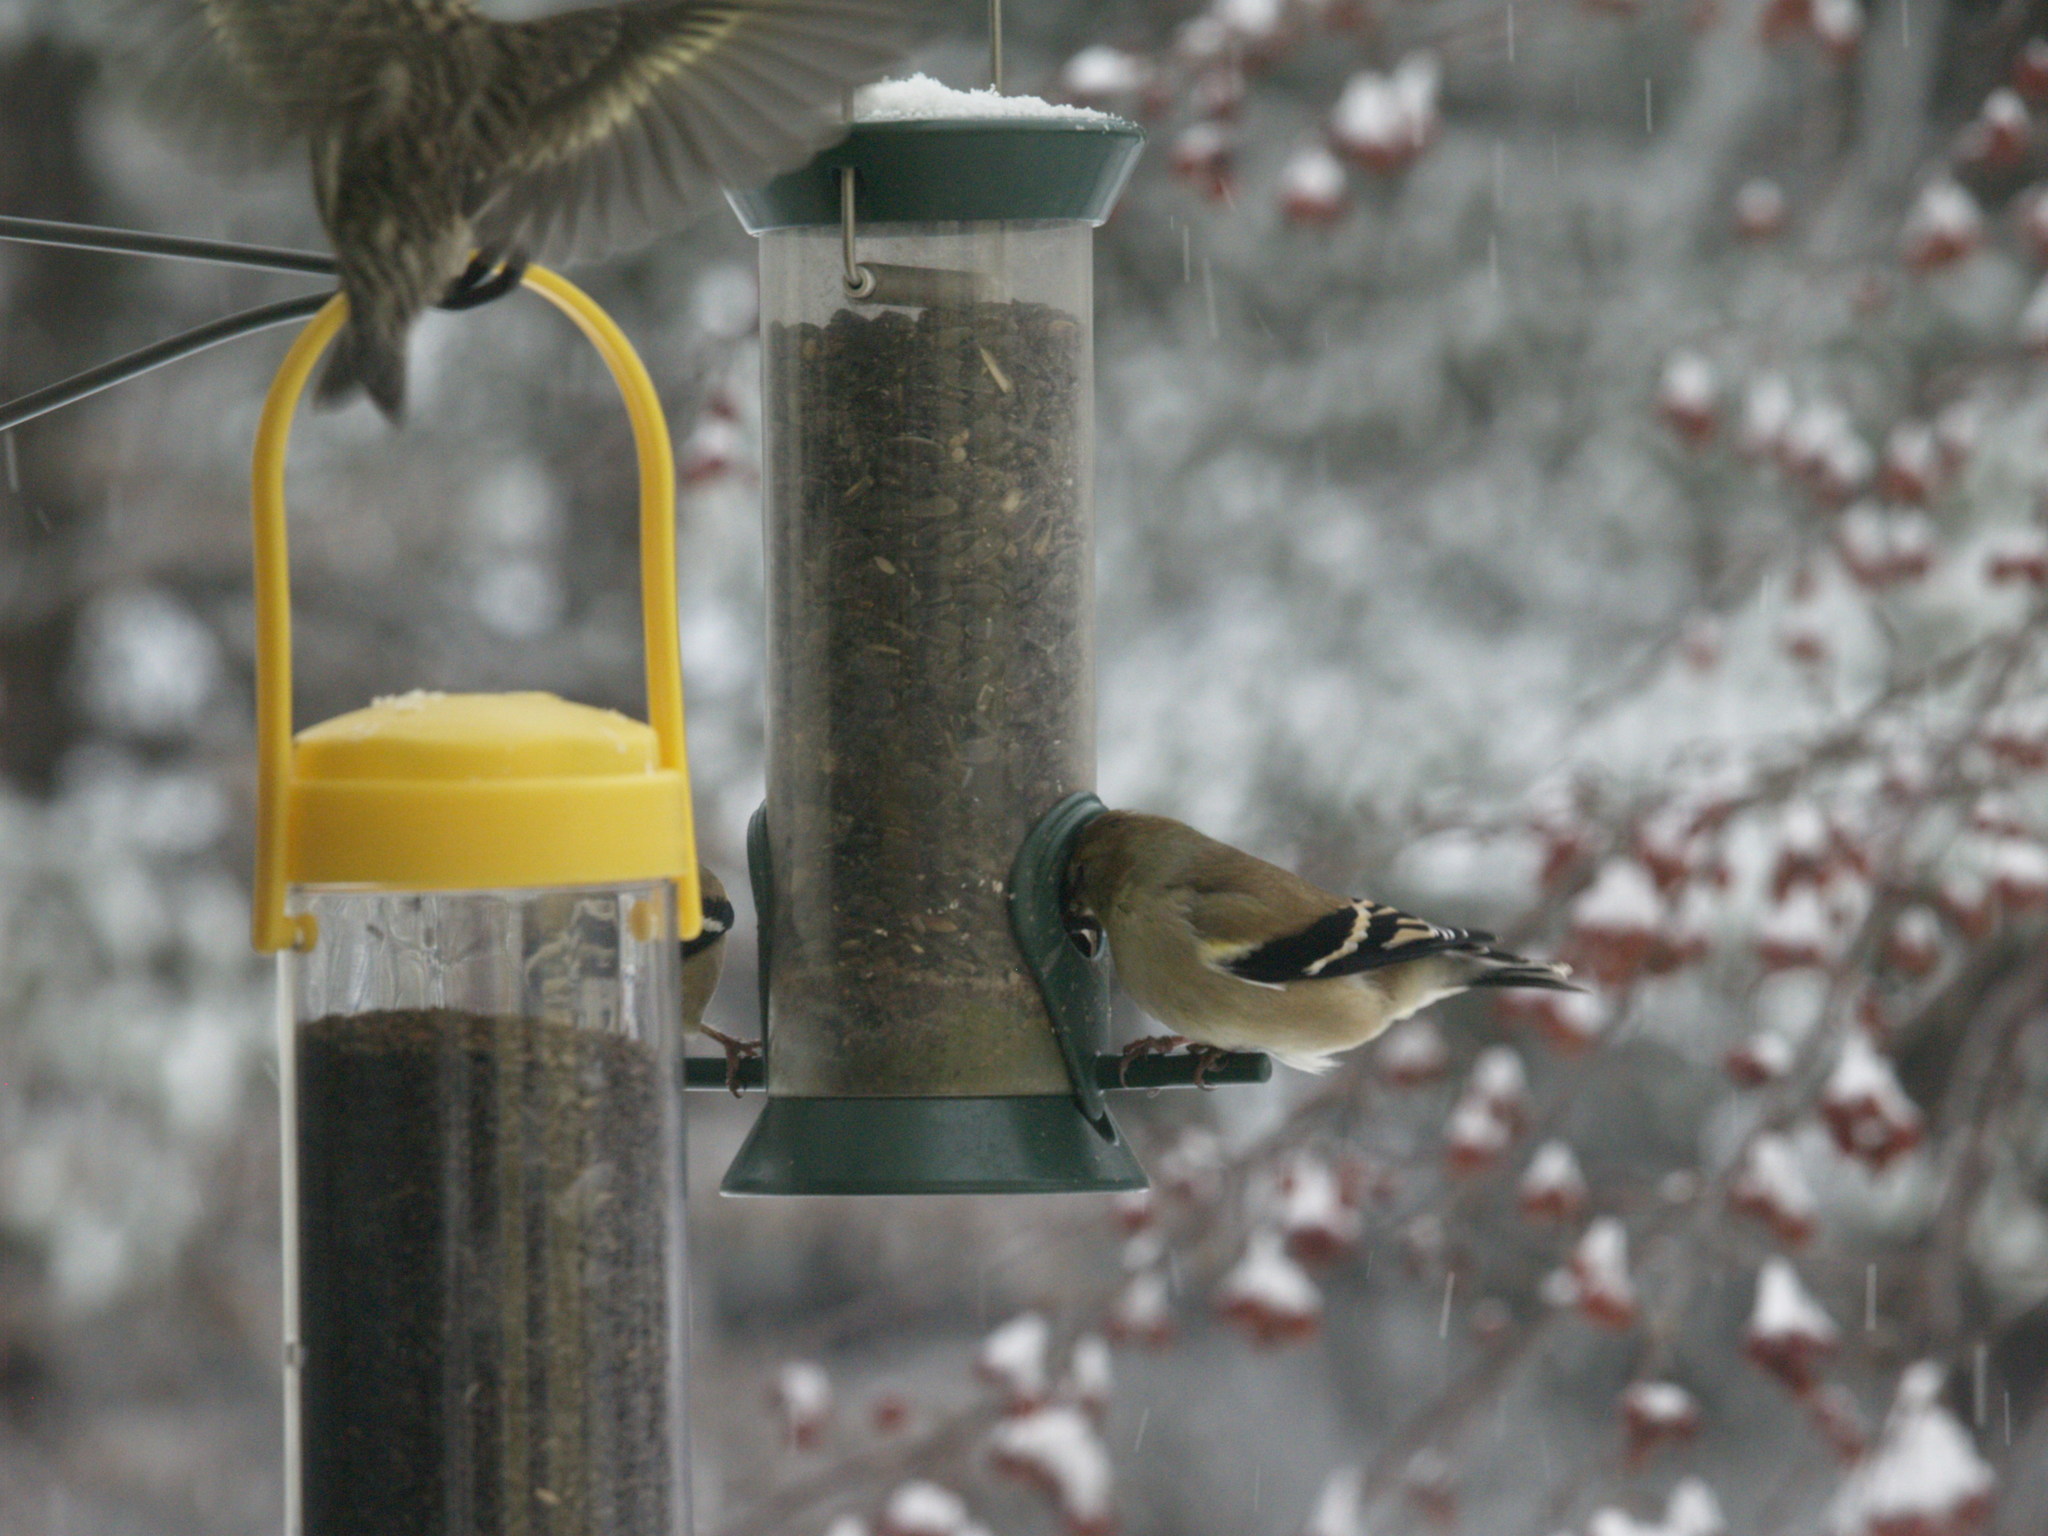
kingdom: Animalia
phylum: Chordata
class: Aves
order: Passeriformes
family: Fringillidae
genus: Spinus
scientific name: Spinus tristis
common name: American goldfinch
